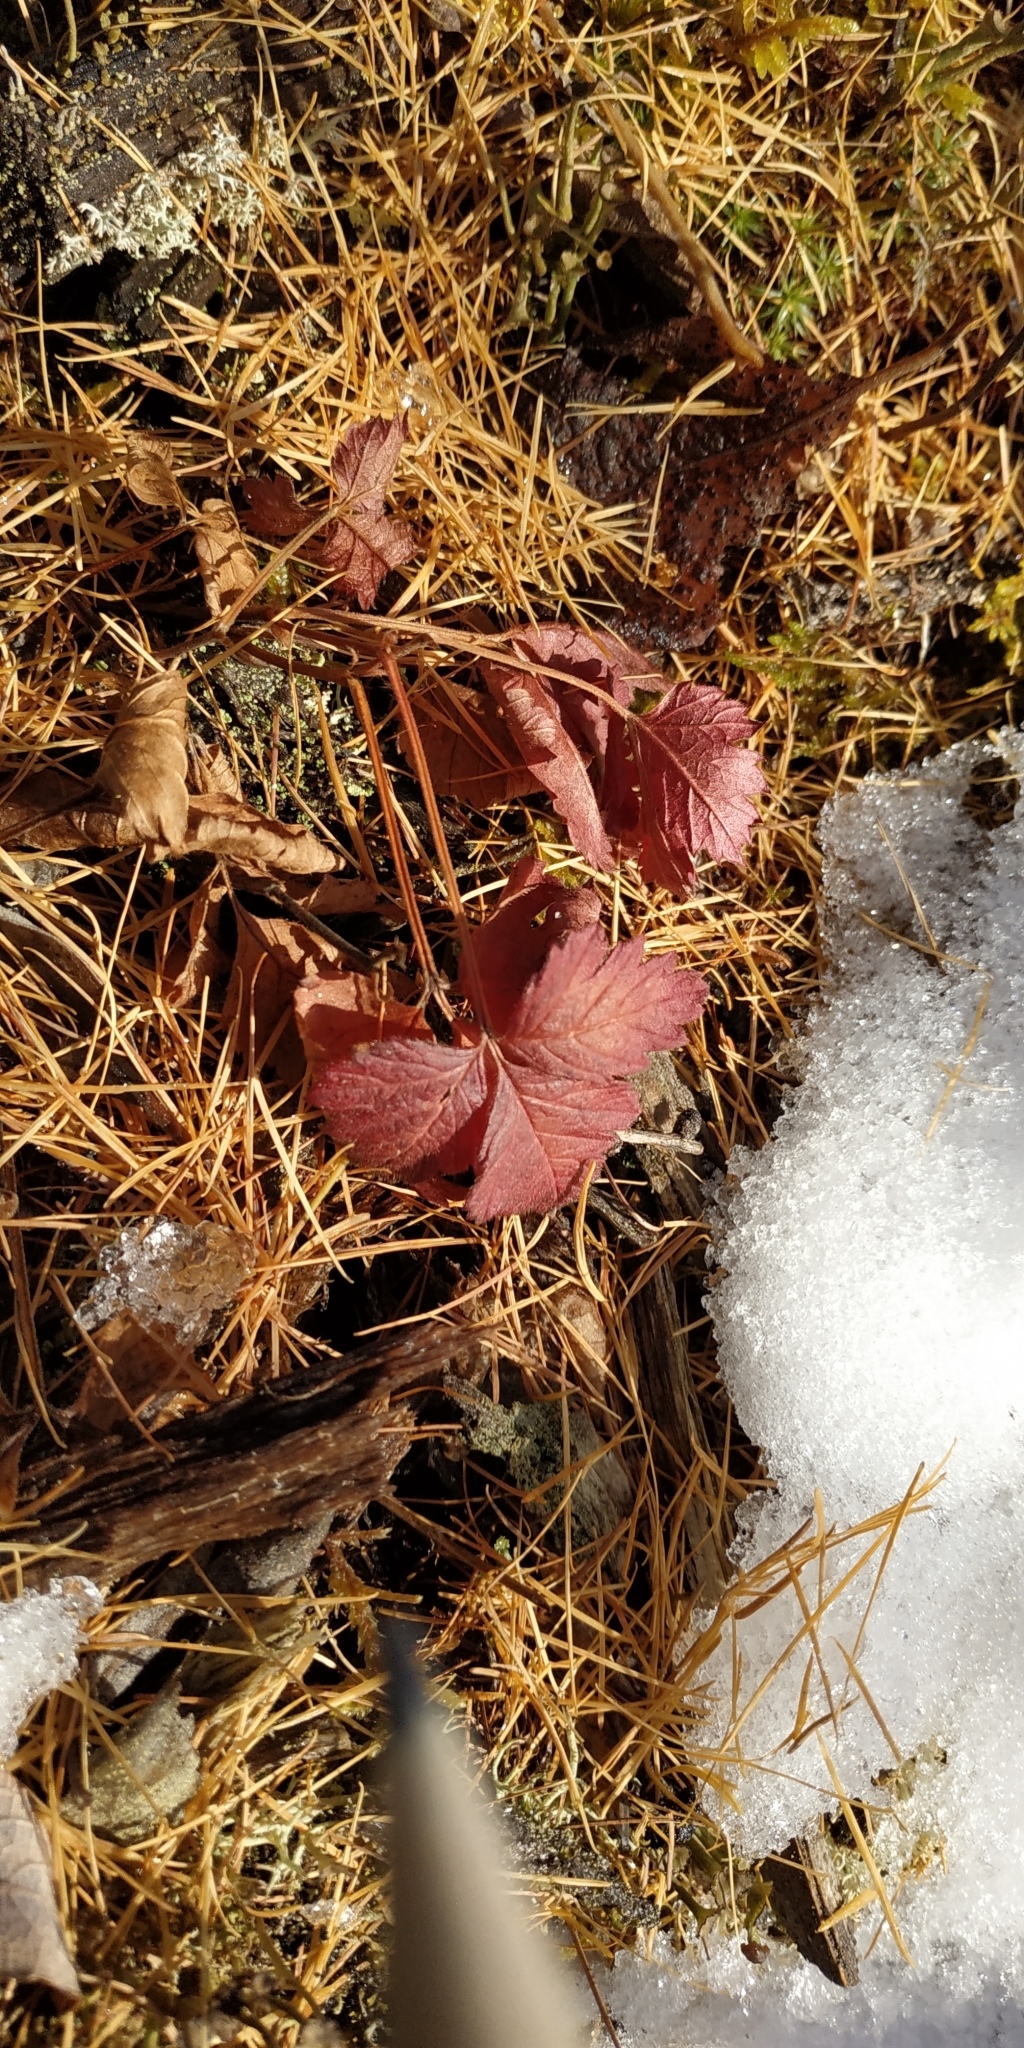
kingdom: Plantae
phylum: Tracheophyta
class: Magnoliopsida
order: Rosales
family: Rosaceae
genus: Rubus
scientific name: Rubus arcticus
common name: Arctic bramble
